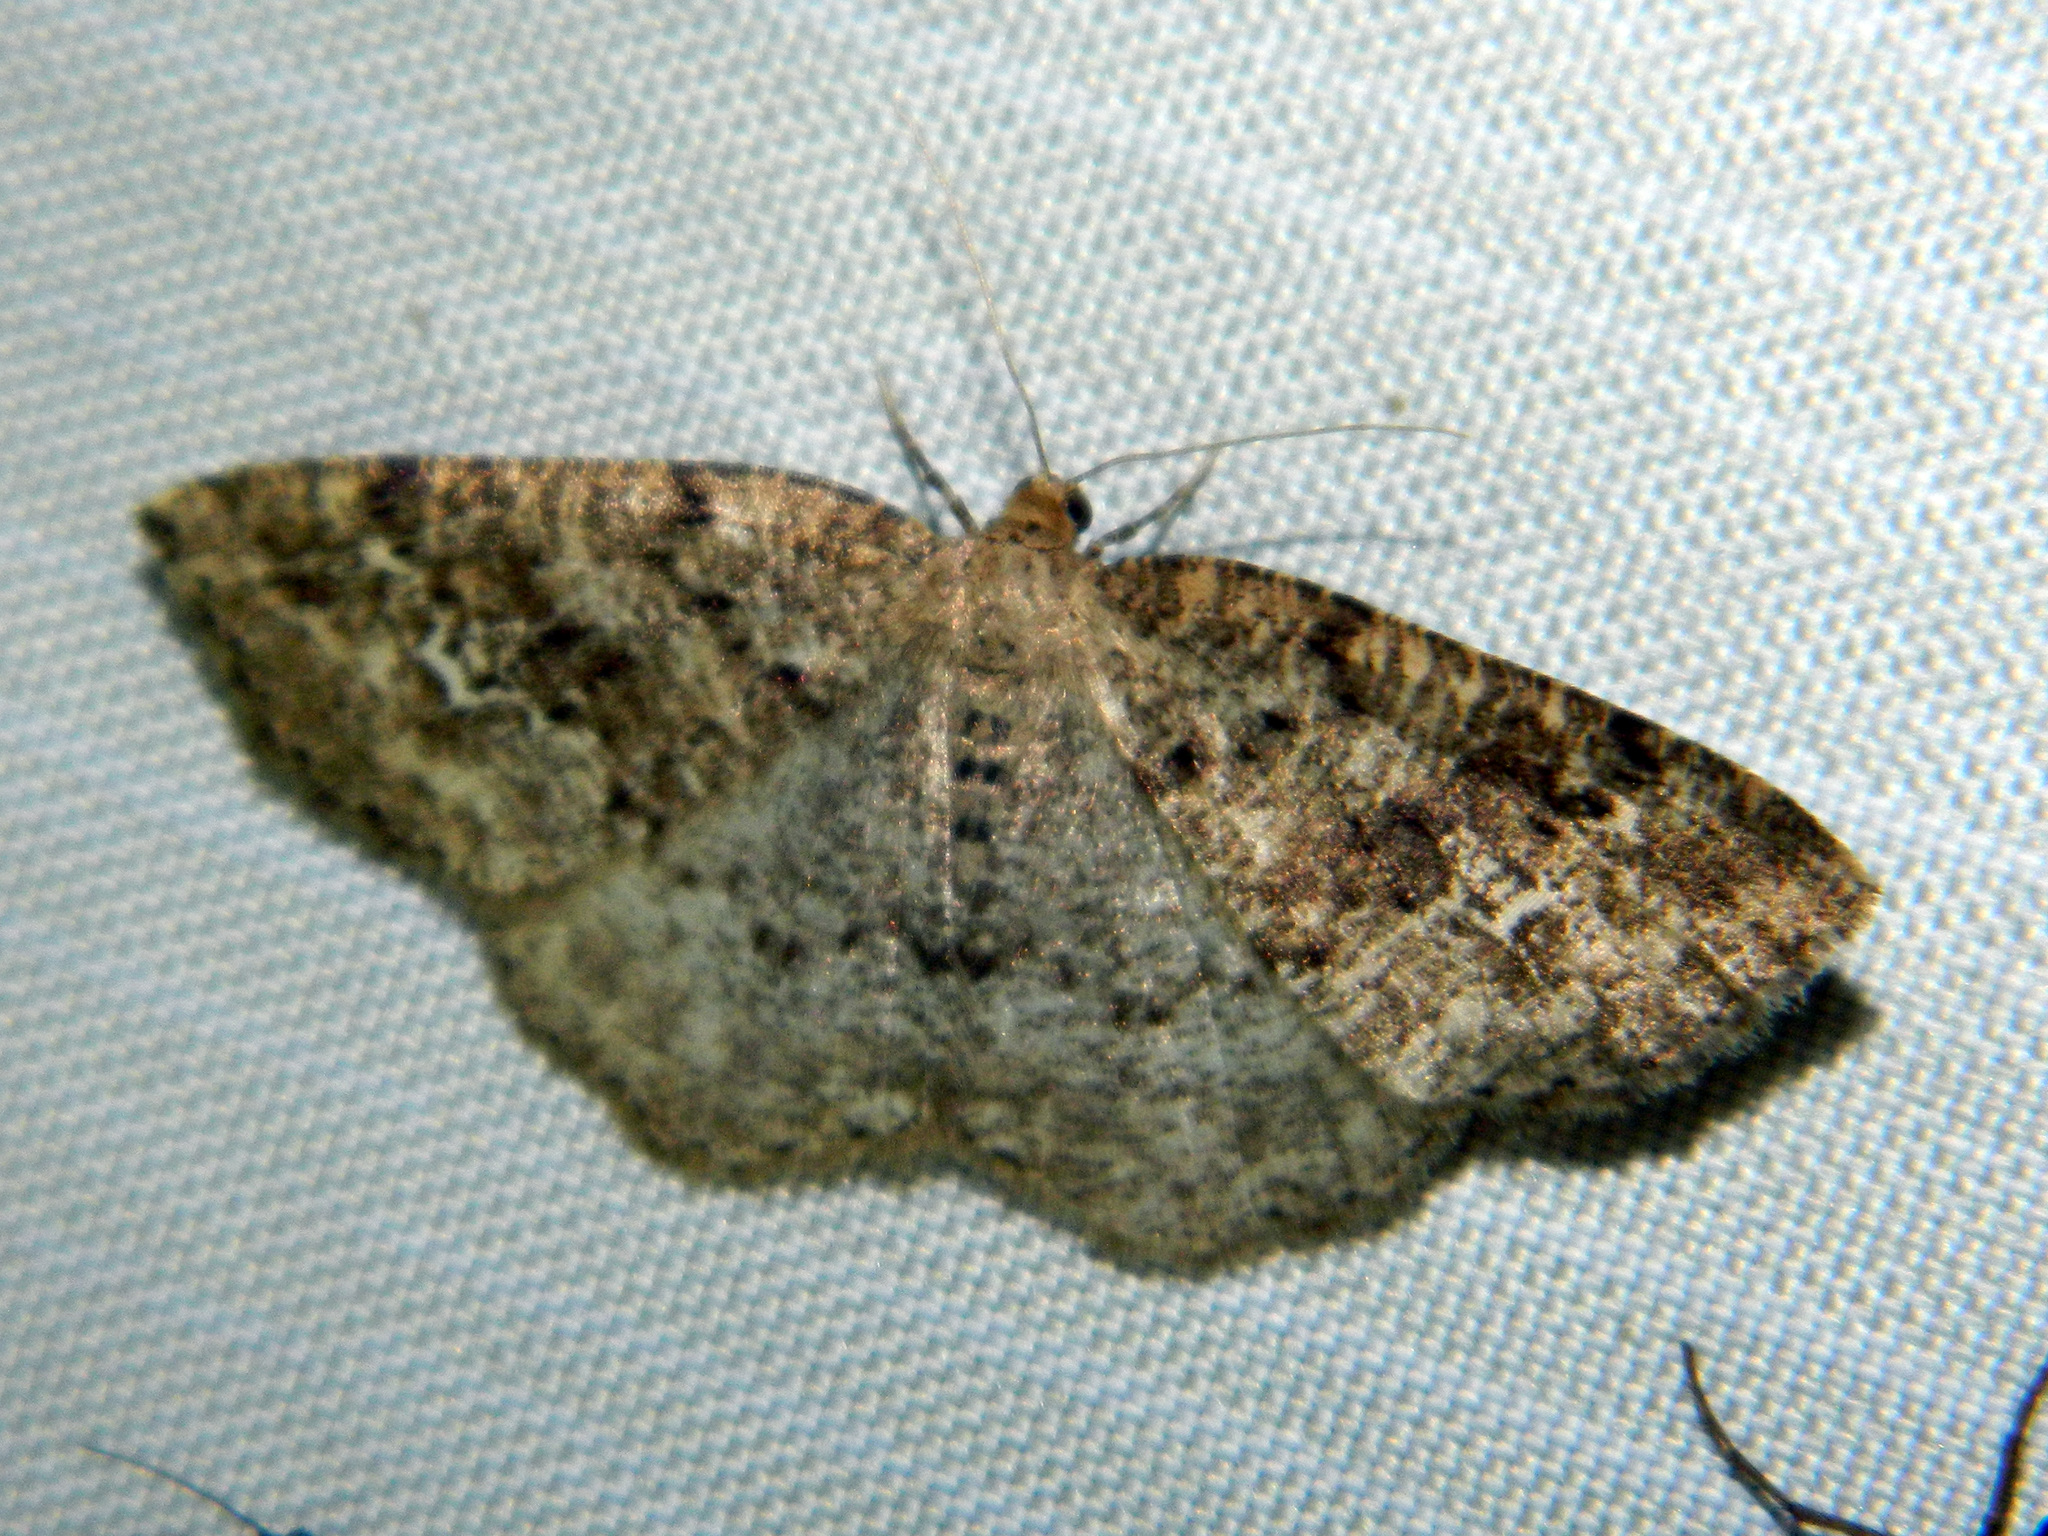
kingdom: Animalia
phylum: Arthropoda
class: Insecta
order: Lepidoptera
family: Geometridae
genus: Homochlodes
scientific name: Homochlodes fritillaria
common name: Pale homochlodes
